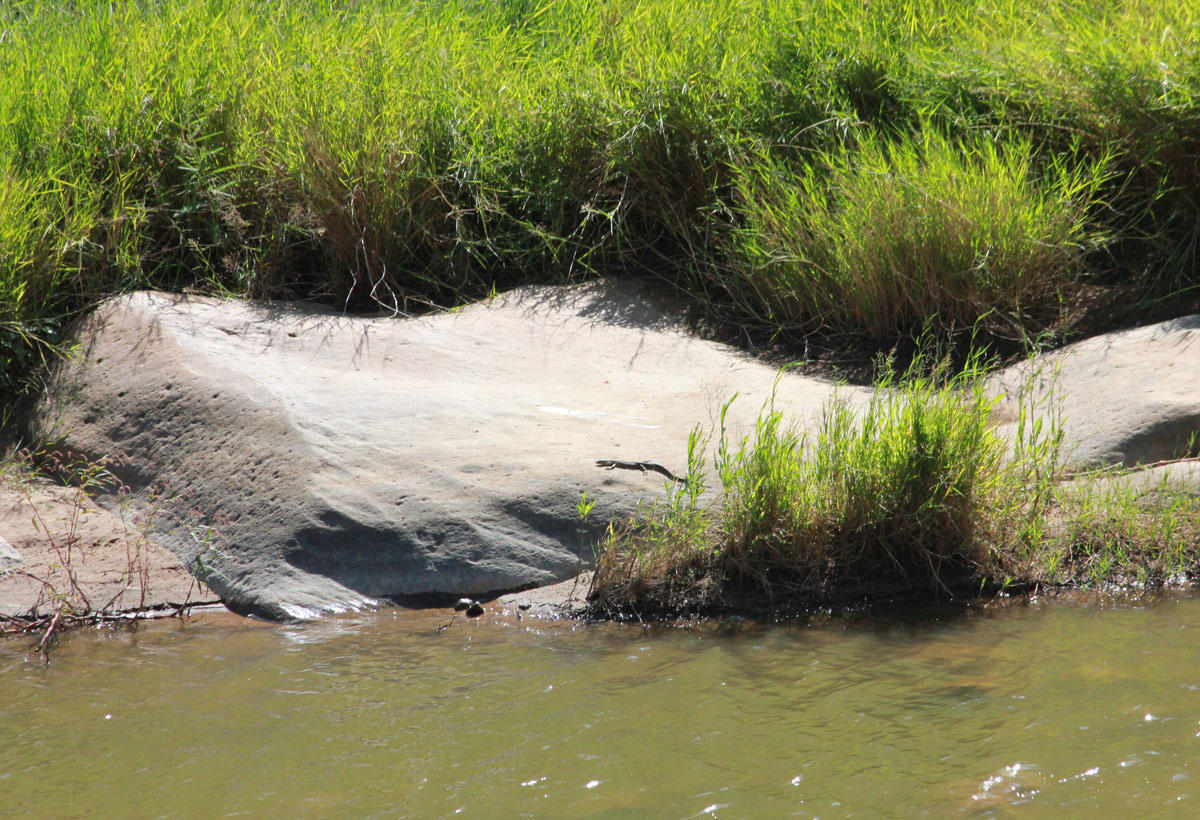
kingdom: Animalia
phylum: Chordata
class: Squamata
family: Varanidae
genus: Varanus
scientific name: Varanus niloticus
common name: Nile monitor
